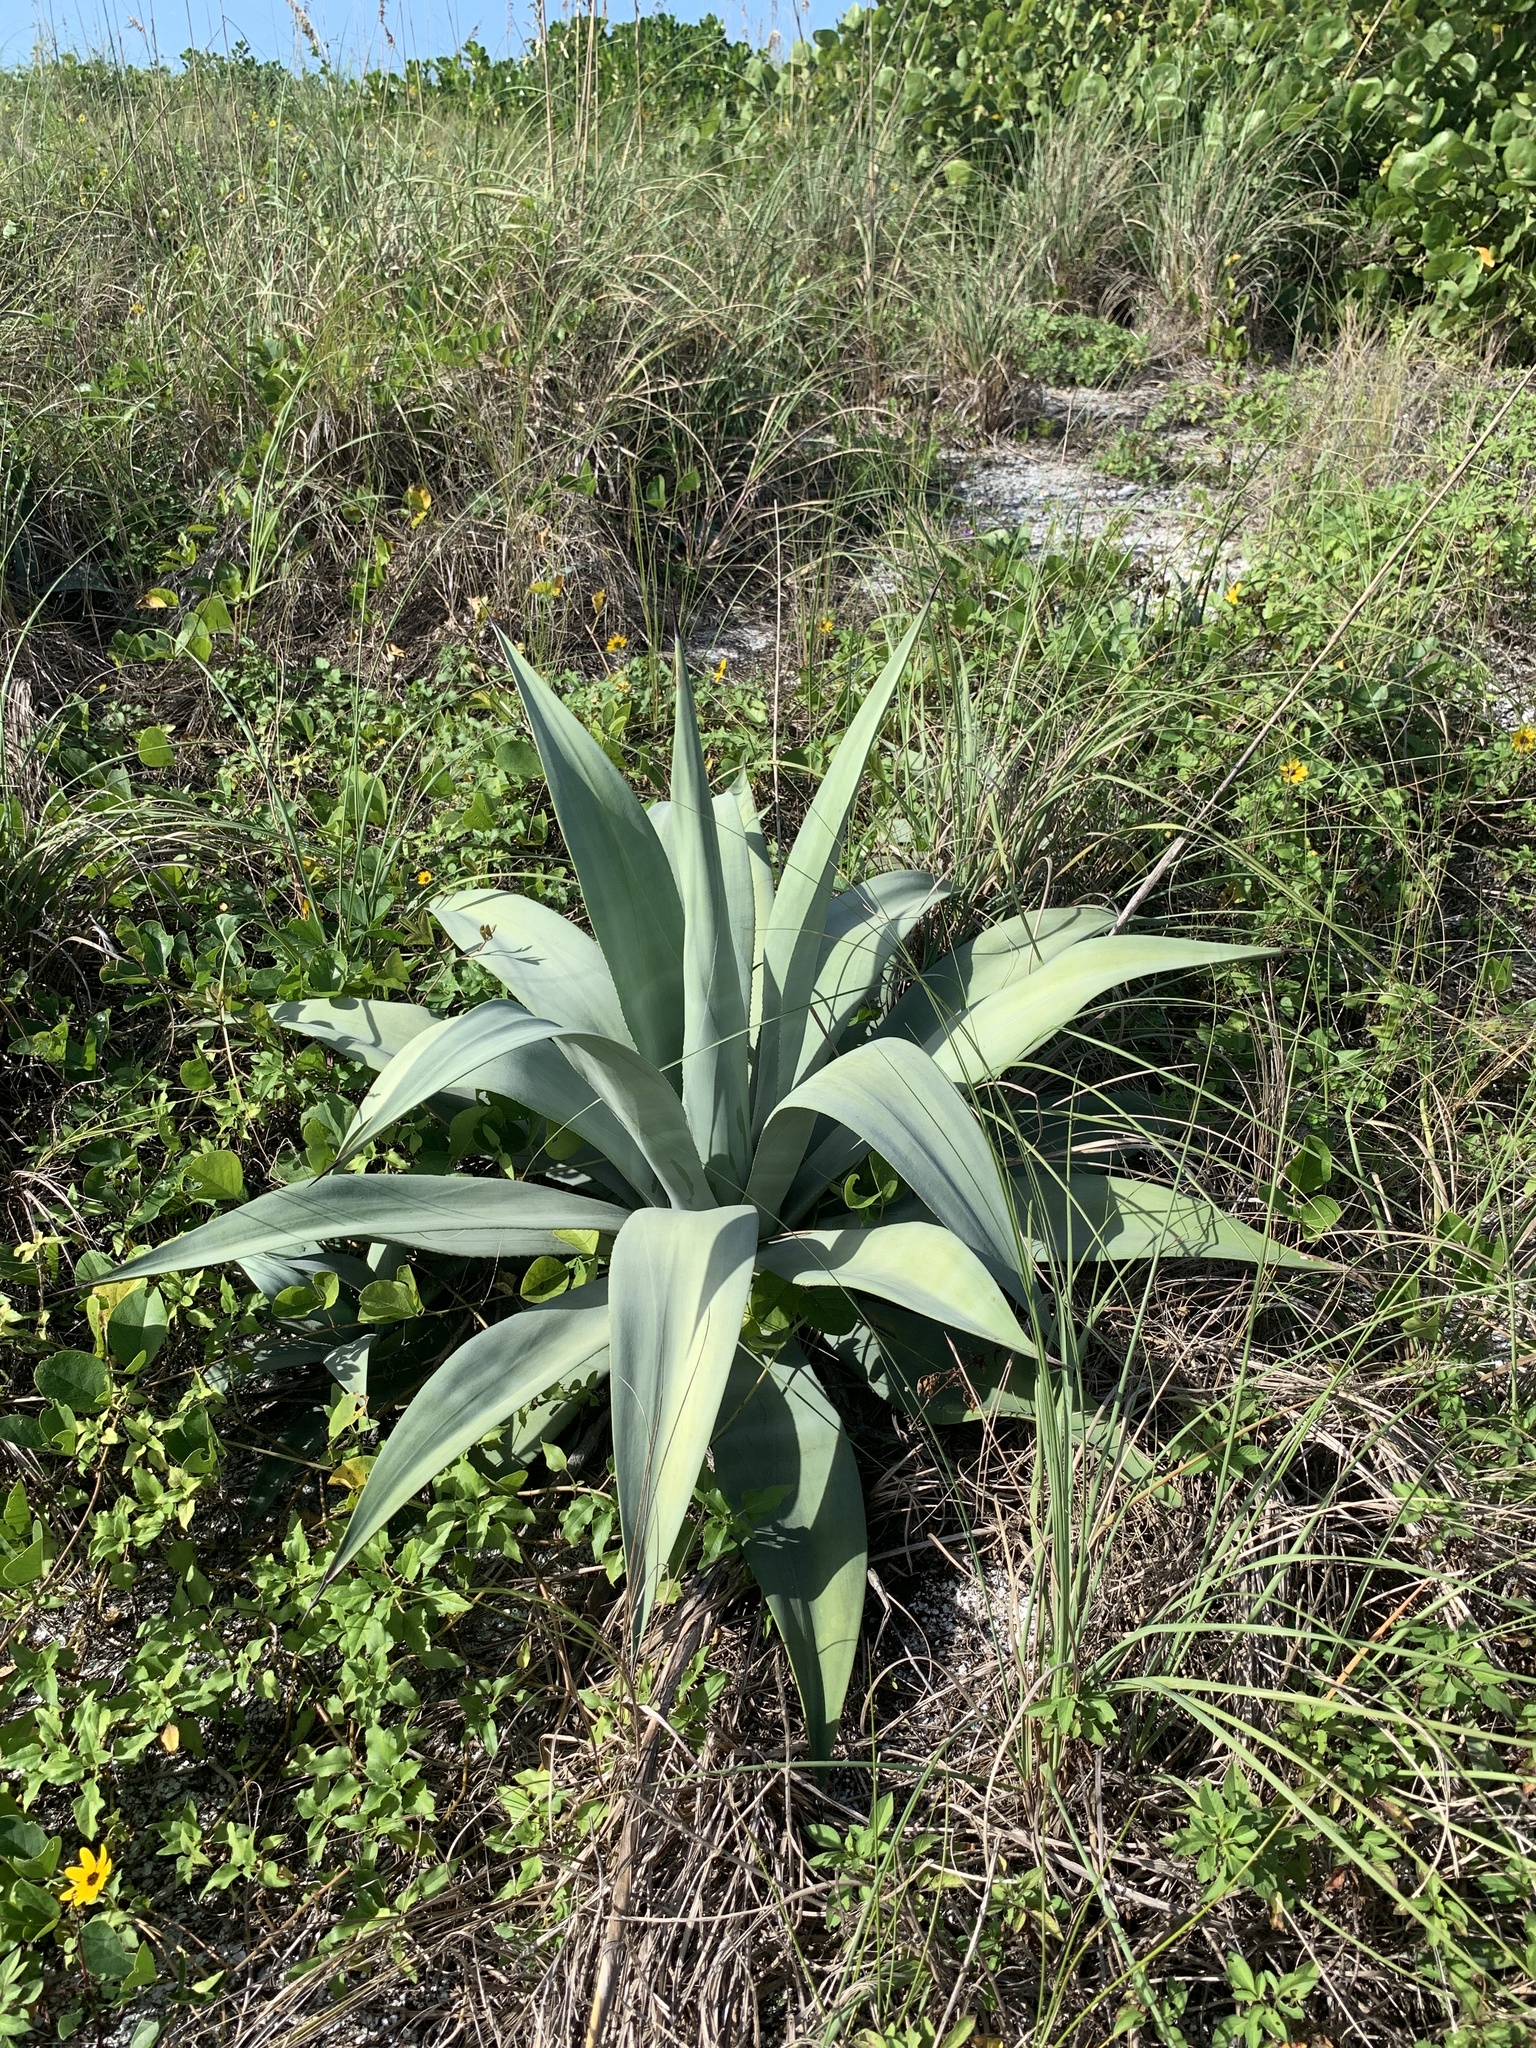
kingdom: Plantae
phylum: Tracheophyta
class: Liliopsida
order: Asparagales
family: Asparagaceae
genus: Agave
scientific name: Agave
